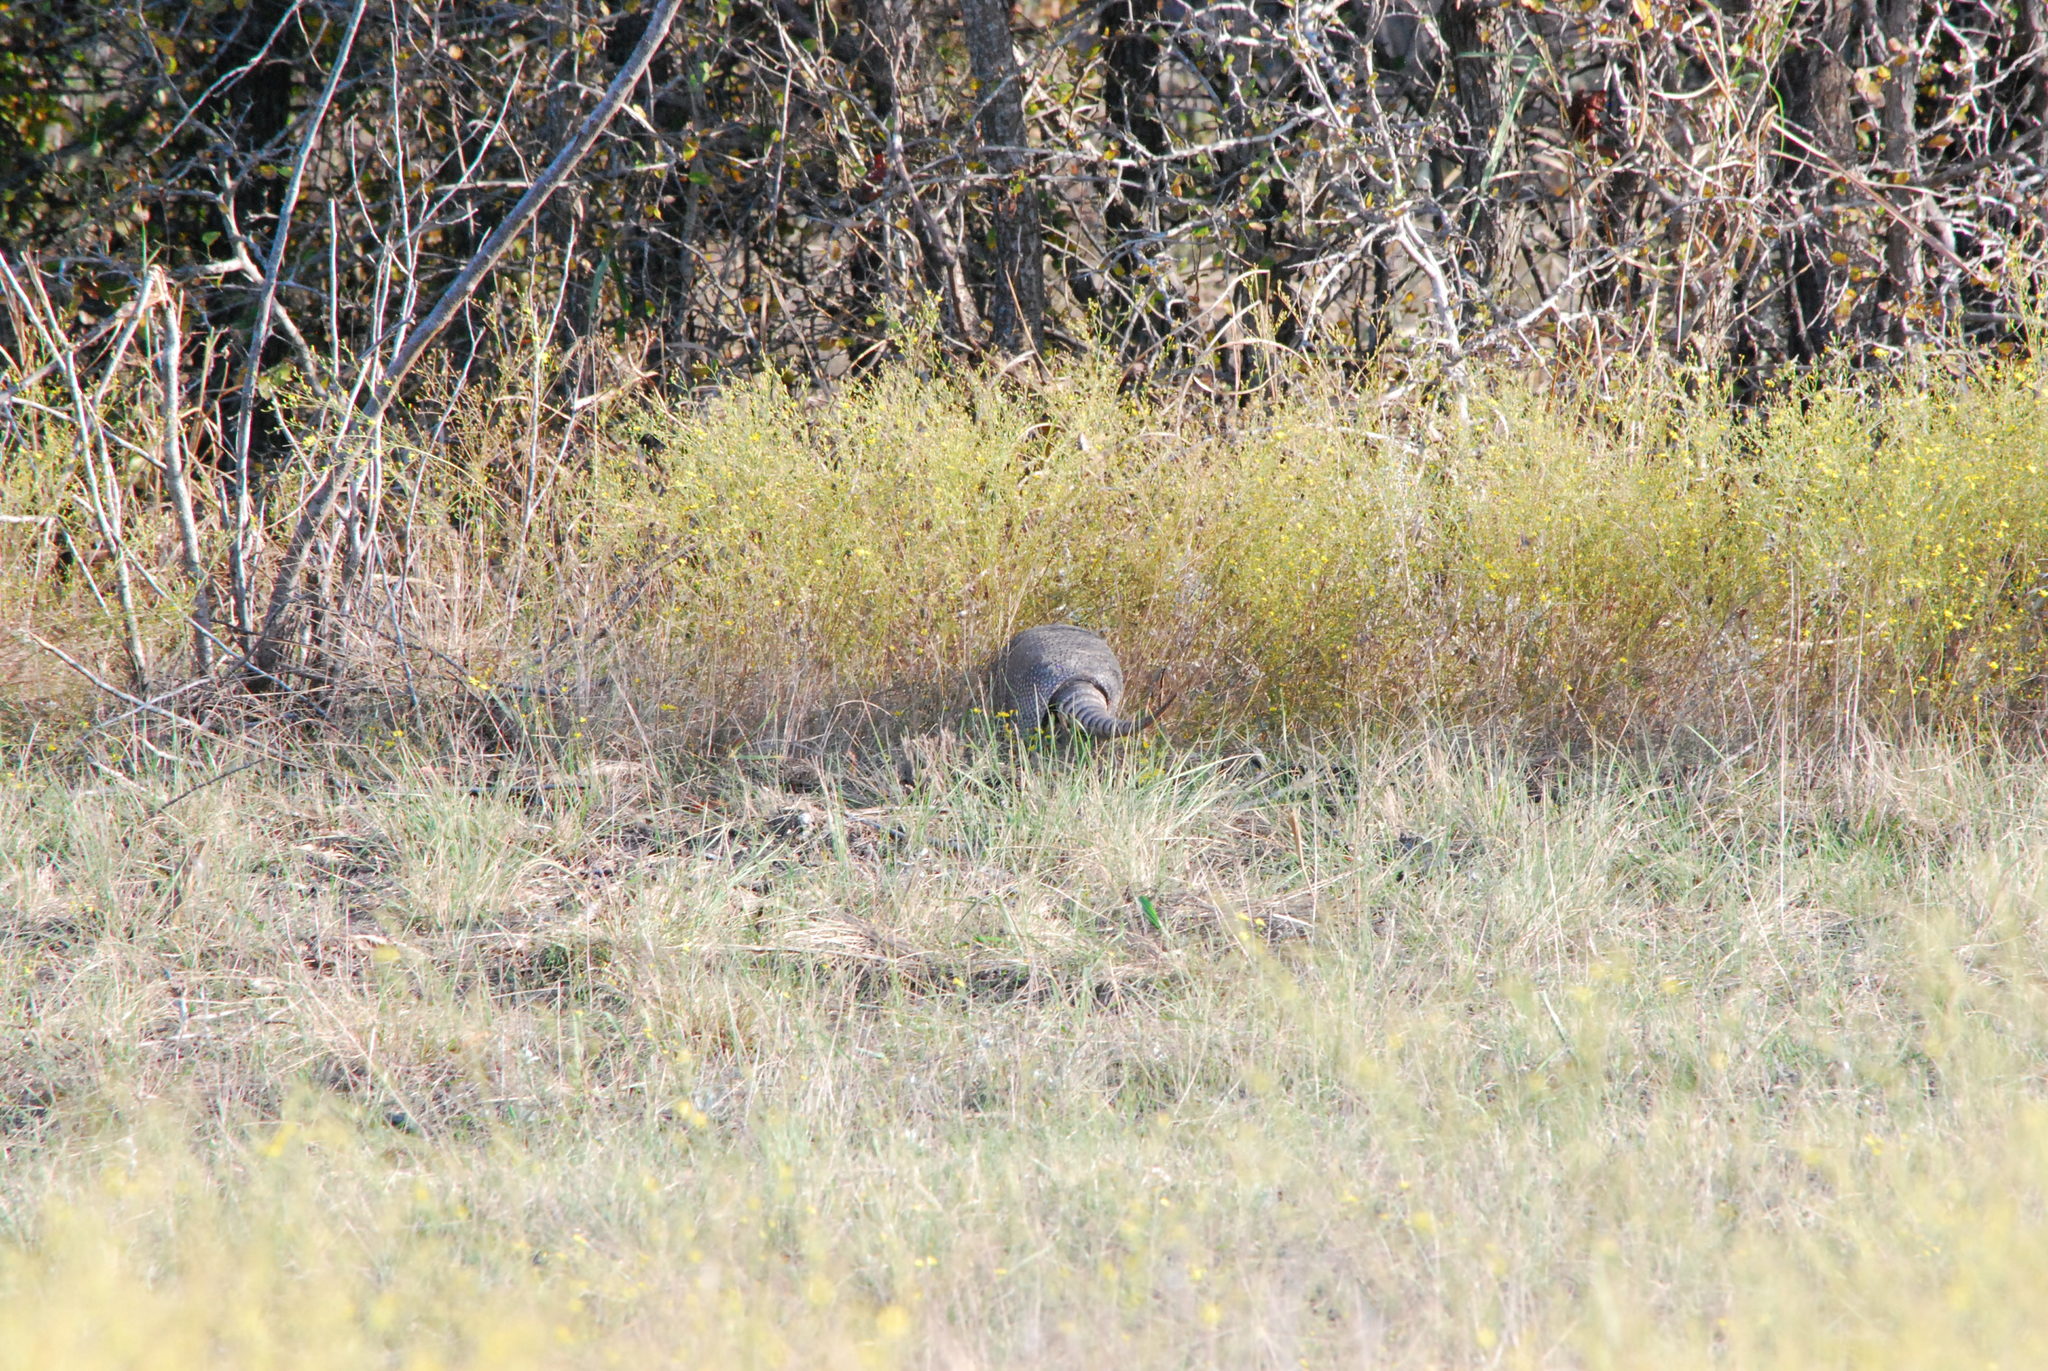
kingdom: Animalia
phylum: Chordata
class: Mammalia
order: Cingulata
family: Dasypodidae
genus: Dasypus
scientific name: Dasypus novemcinctus
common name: Nine-banded armadillo
